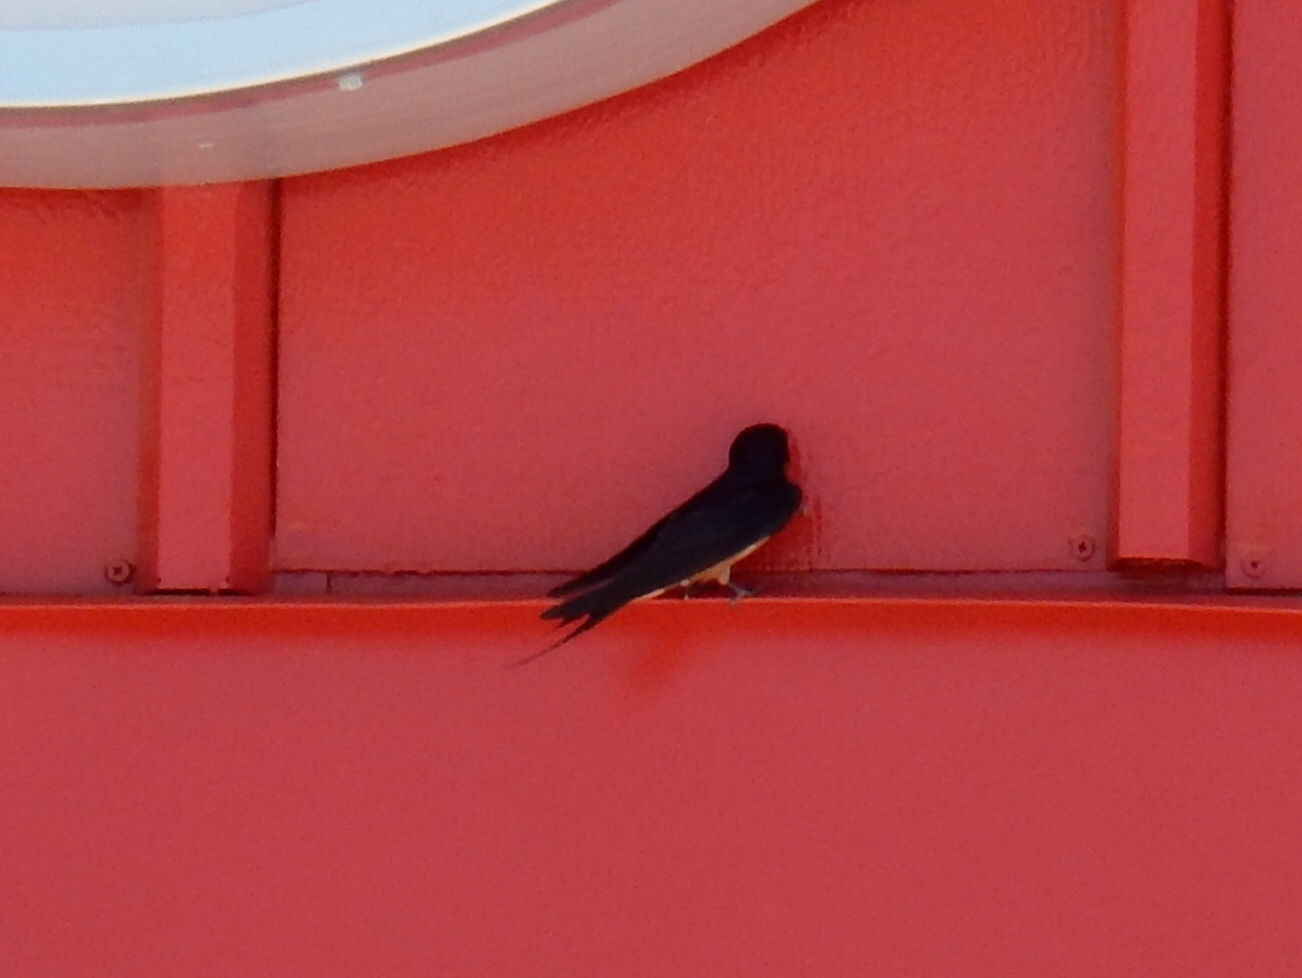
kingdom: Animalia
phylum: Chordata
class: Aves
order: Passeriformes
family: Hirundinidae
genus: Hirundo
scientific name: Hirundo rustica
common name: Barn swallow
